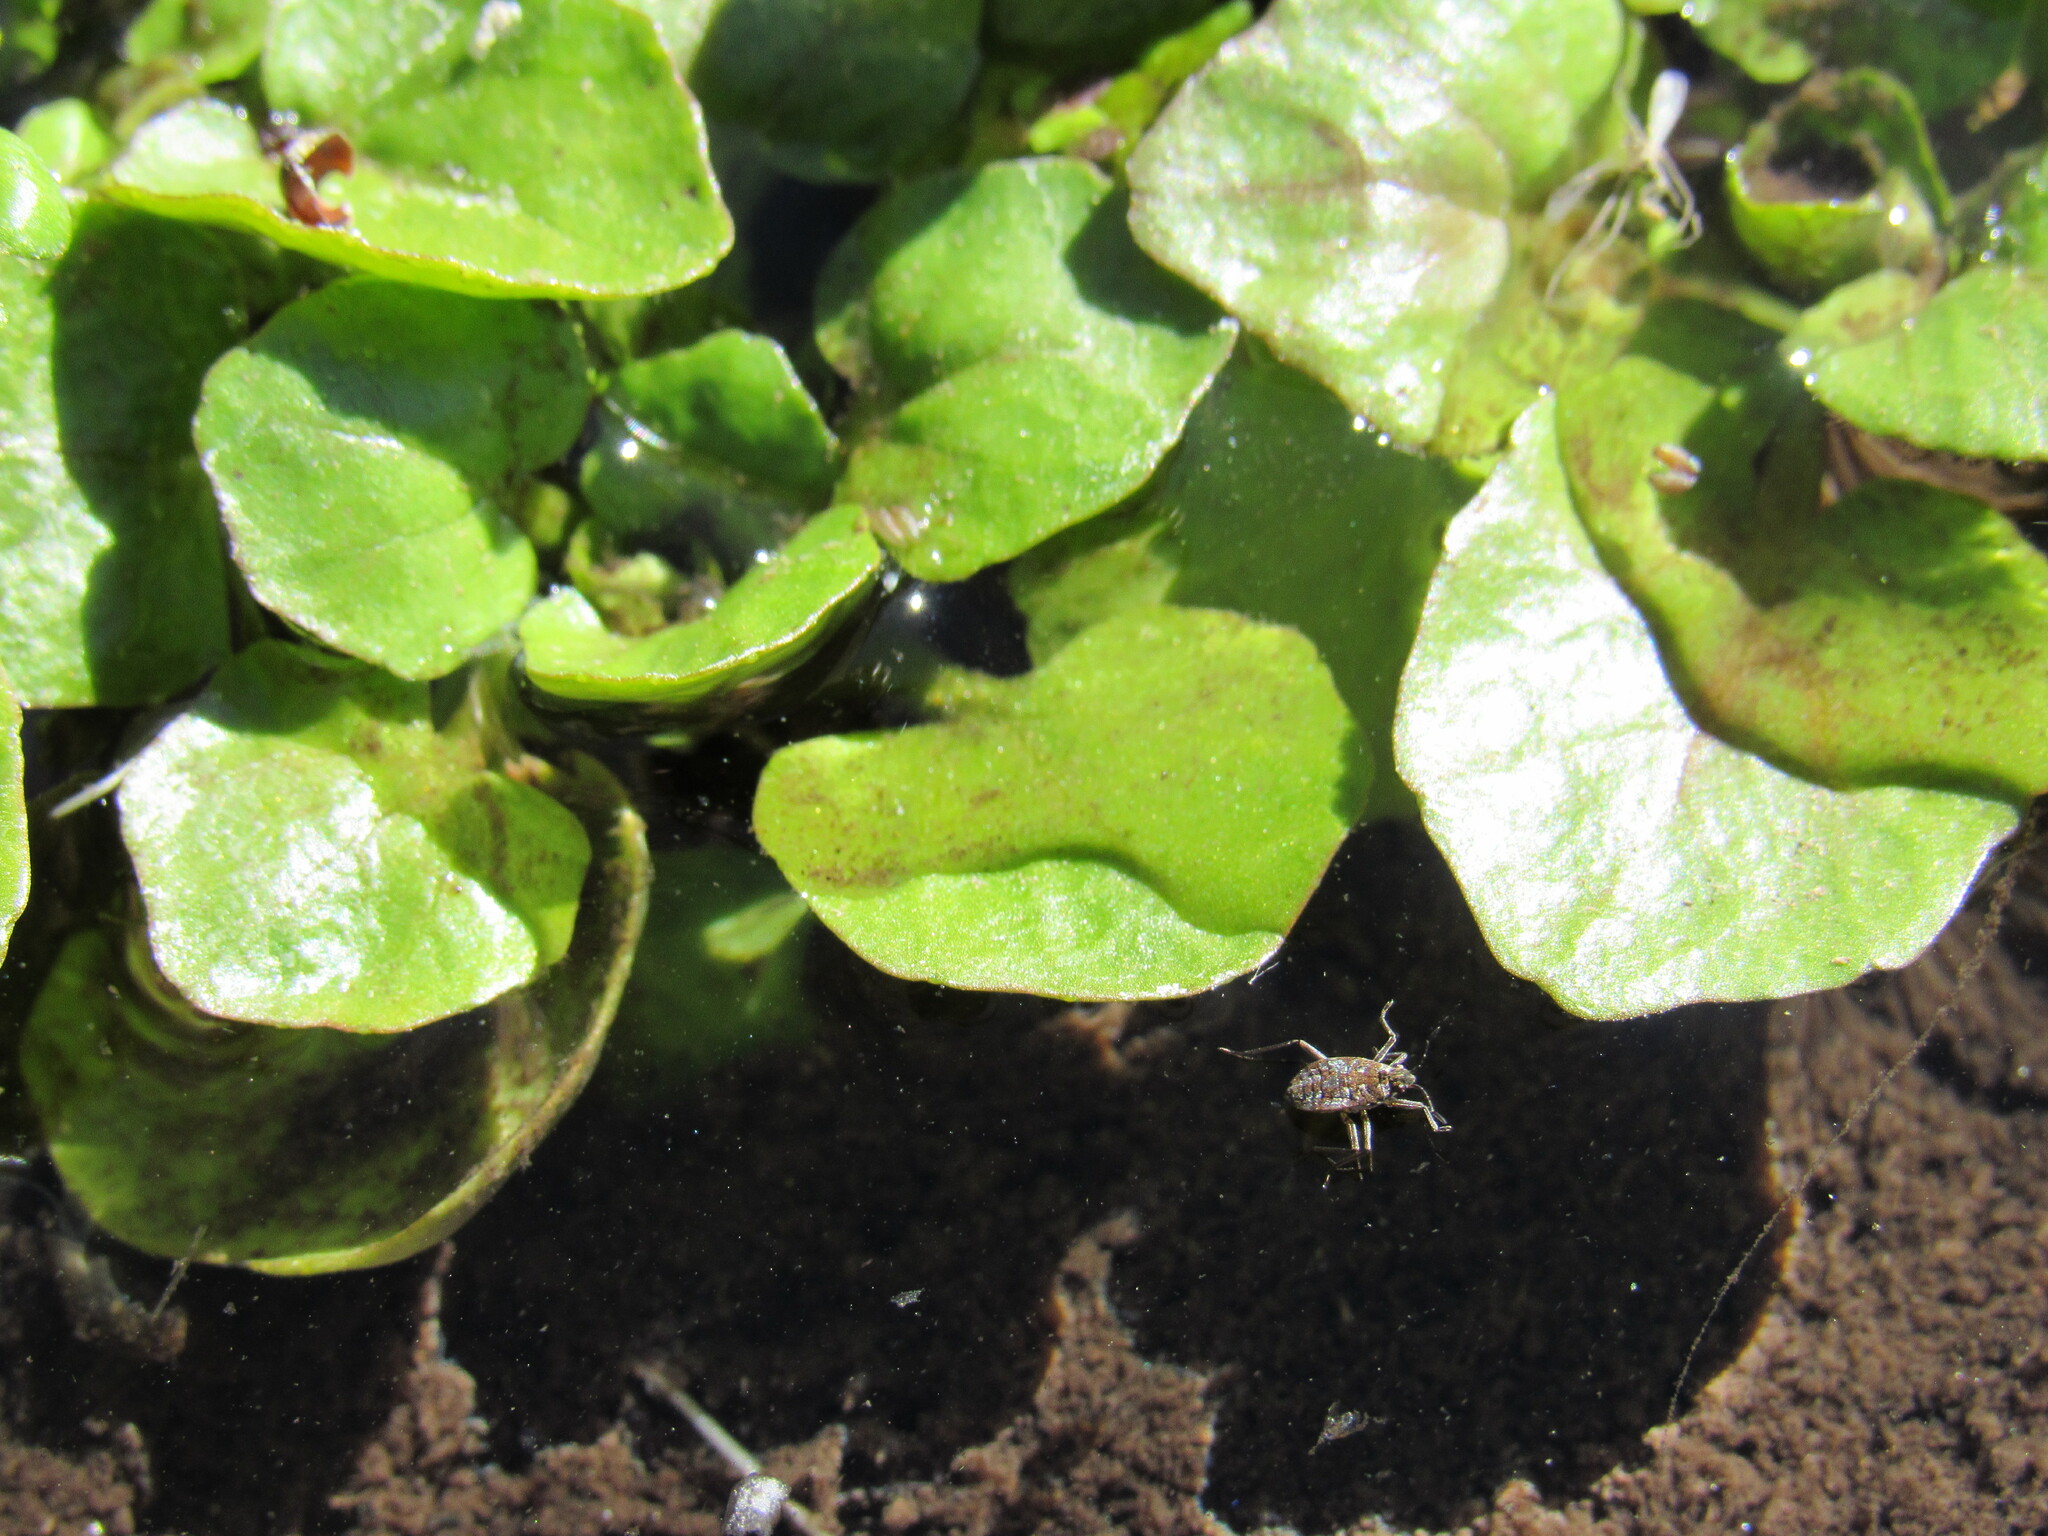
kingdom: Animalia
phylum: Arthropoda
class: Insecta
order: Hemiptera
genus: Kirkaldya
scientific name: Kirkaldya
